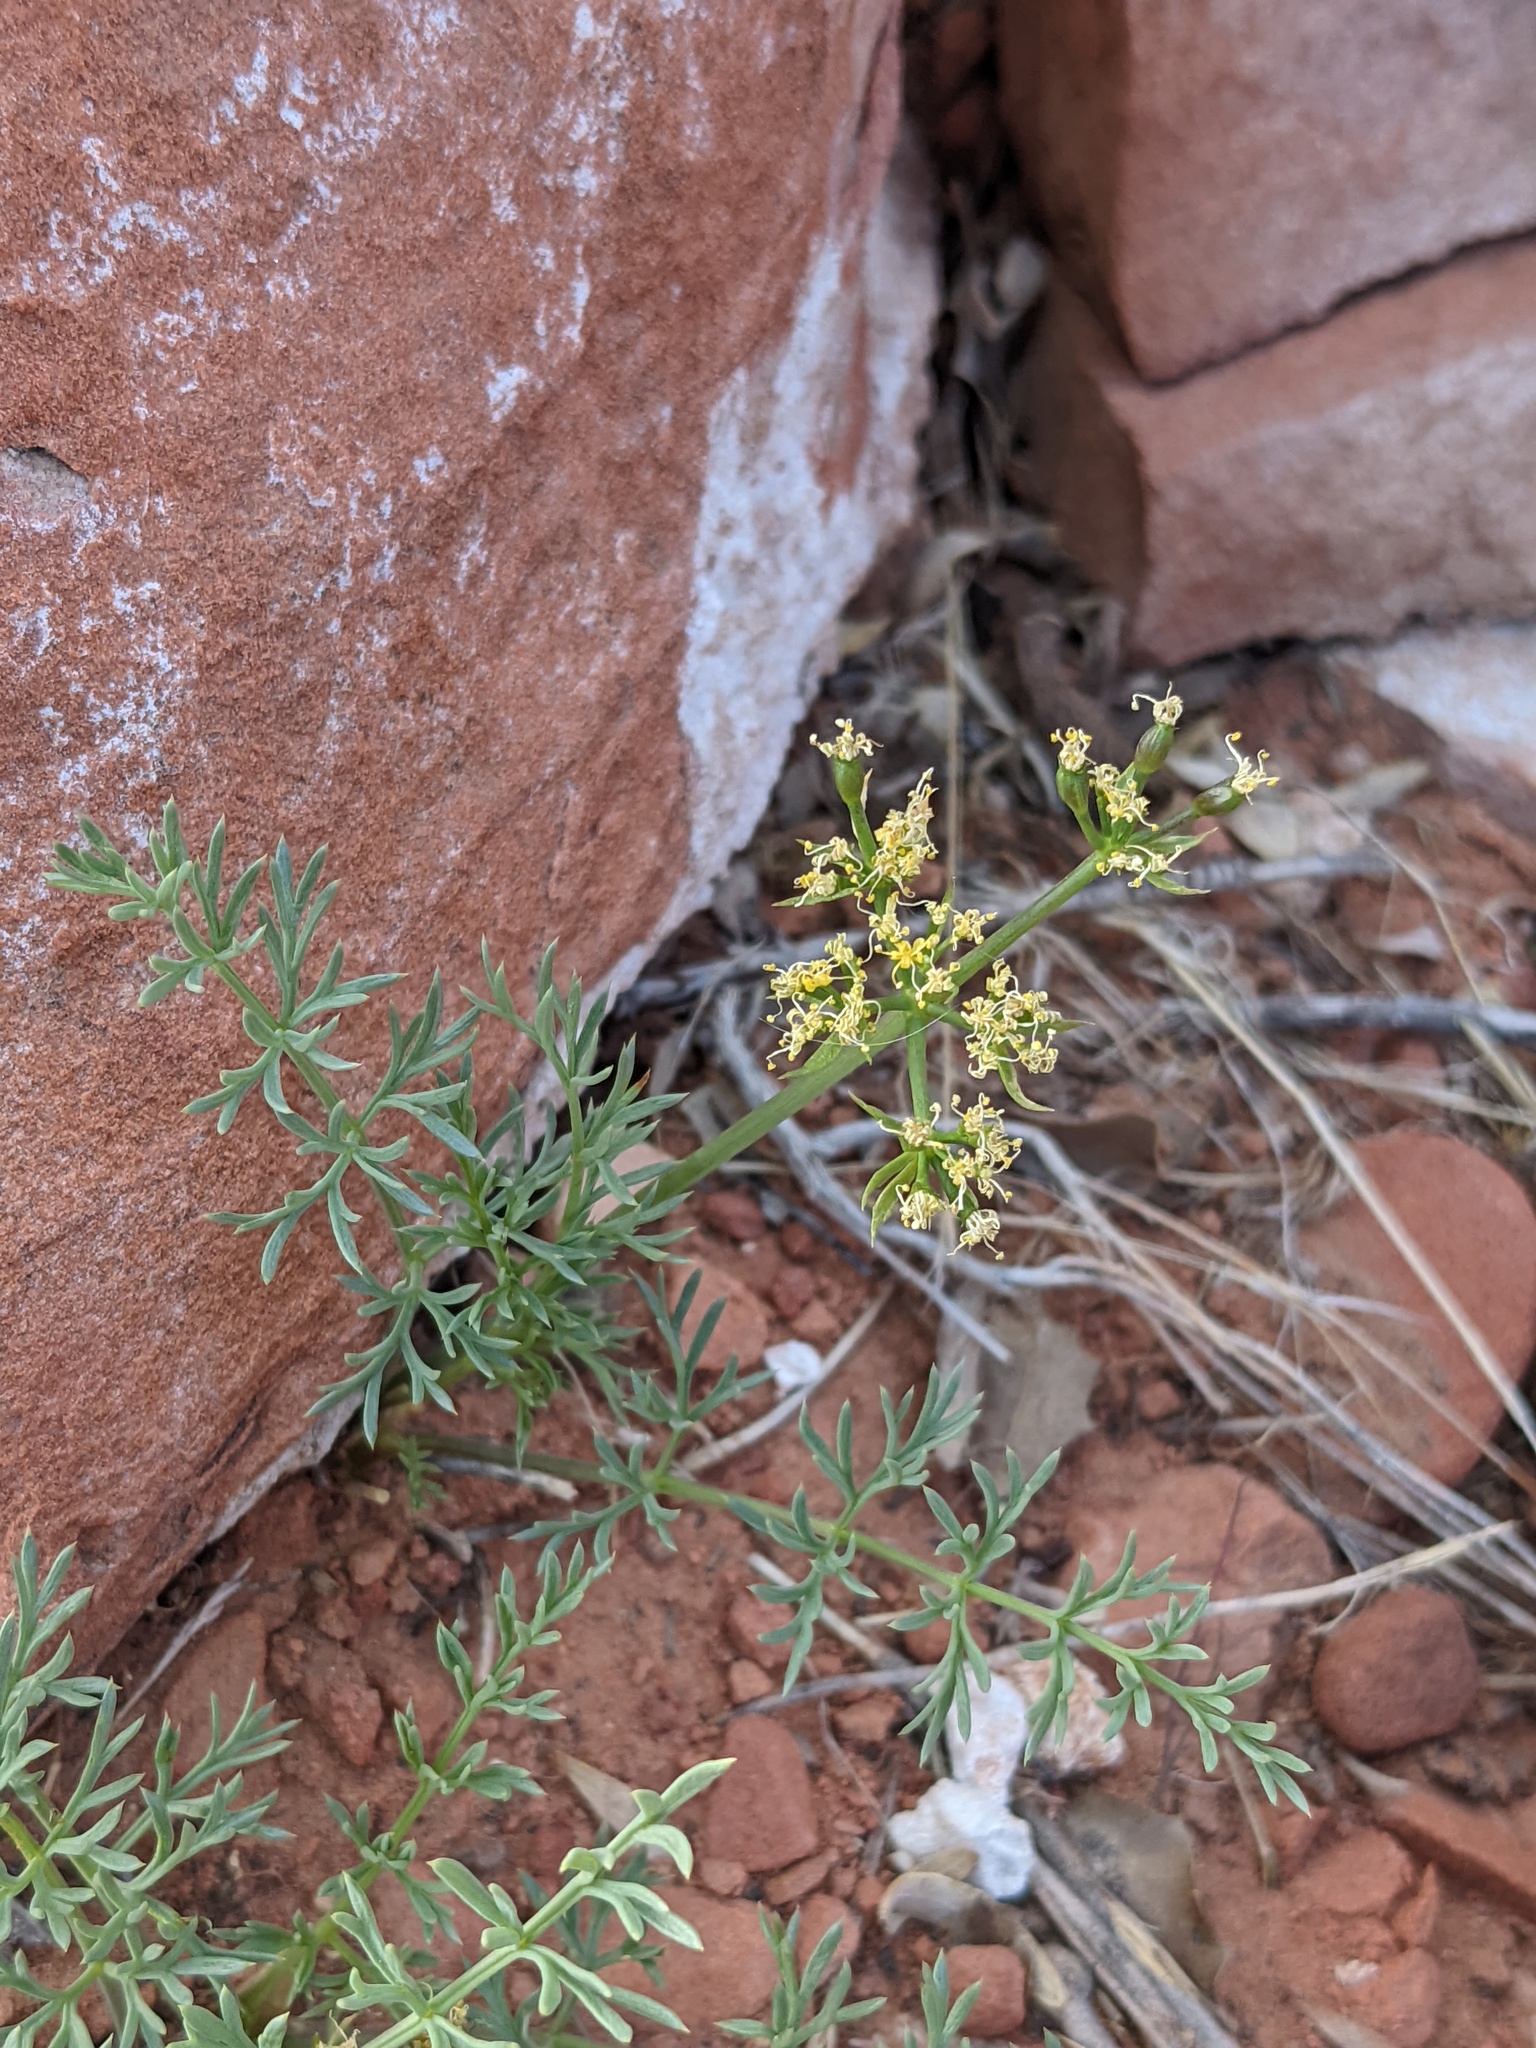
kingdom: Plantae
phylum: Tracheophyta
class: Magnoliopsida
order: Apiales
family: Apiaceae
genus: Lomatium
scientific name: Lomatium parryi
